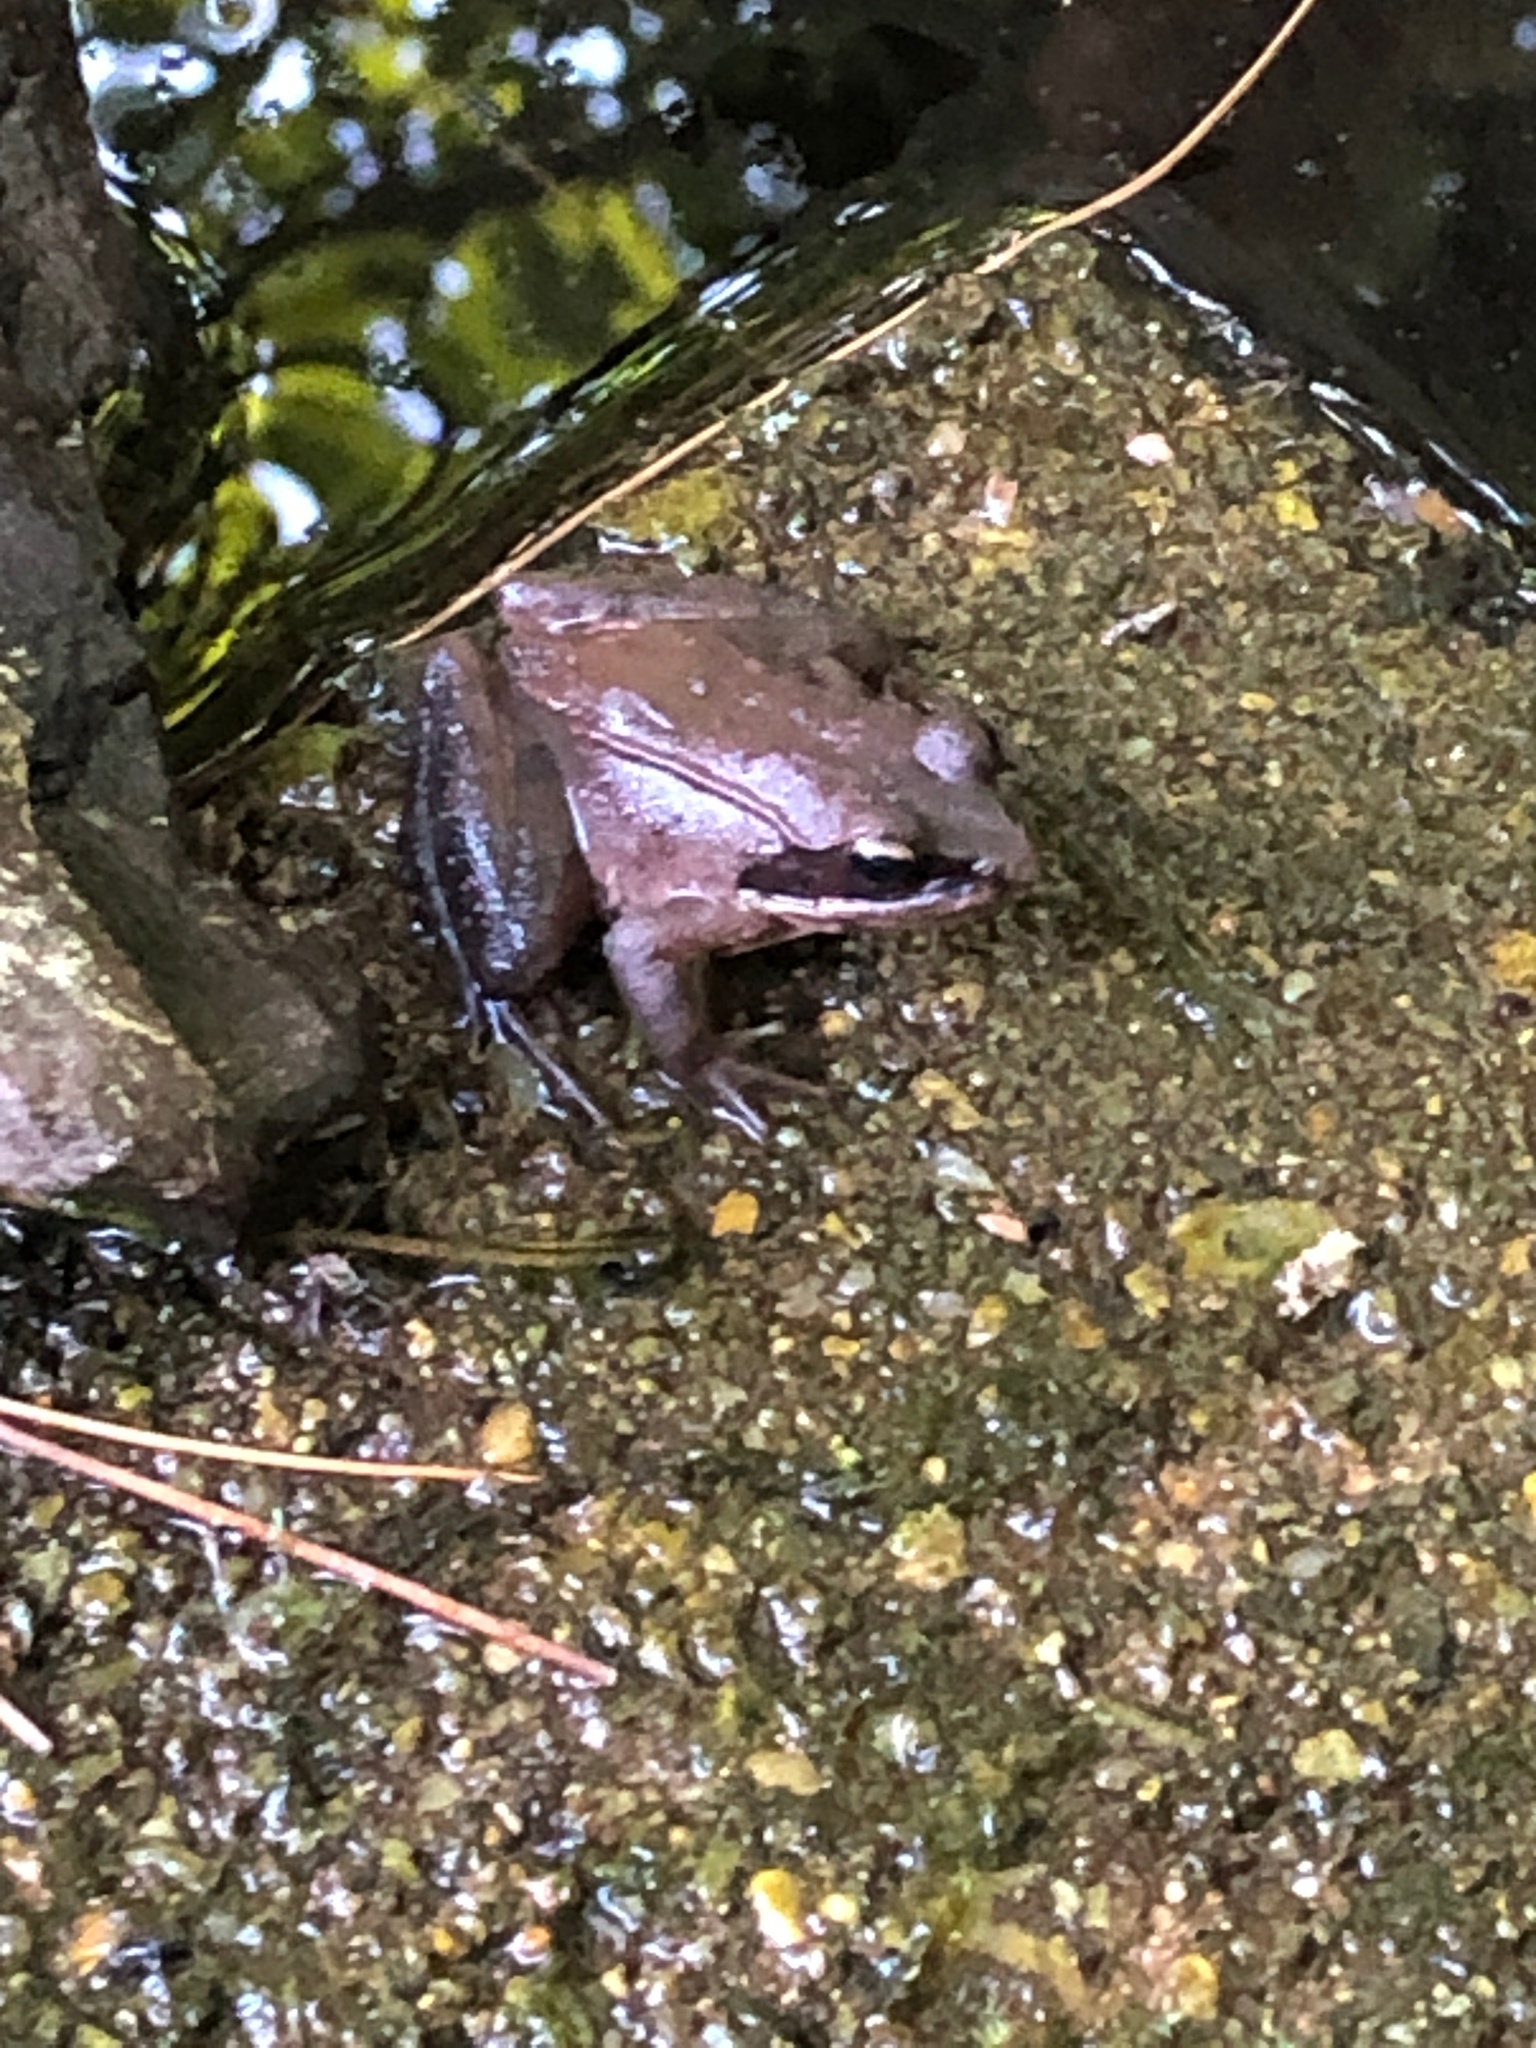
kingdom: Animalia
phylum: Chordata
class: Amphibia
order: Anura
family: Ranidae
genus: Lithobates
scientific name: Lithobates sylvaticus
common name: Wood frog
